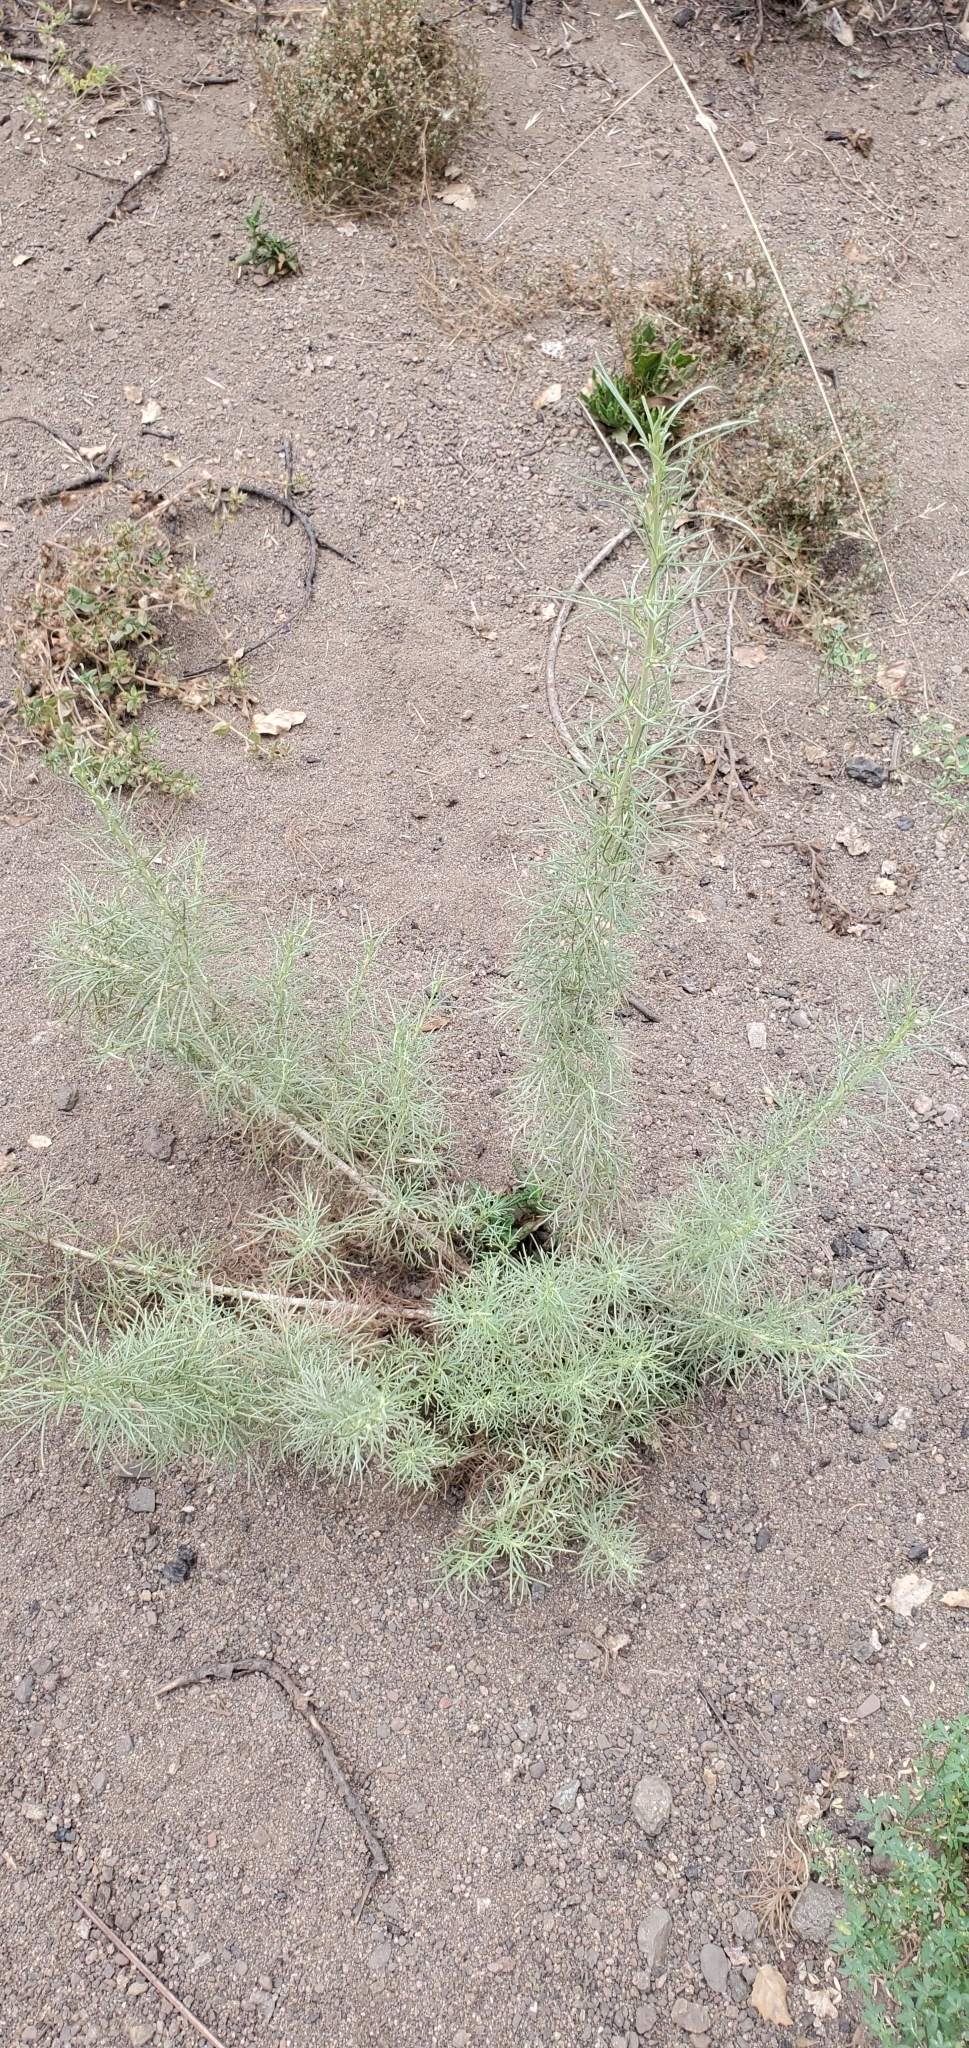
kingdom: Plantae
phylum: Tracheophyta
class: Magnoliopsida
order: Asterales
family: Asteraceae
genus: Artemisia
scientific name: Artemisia californica
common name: California sagebrush
